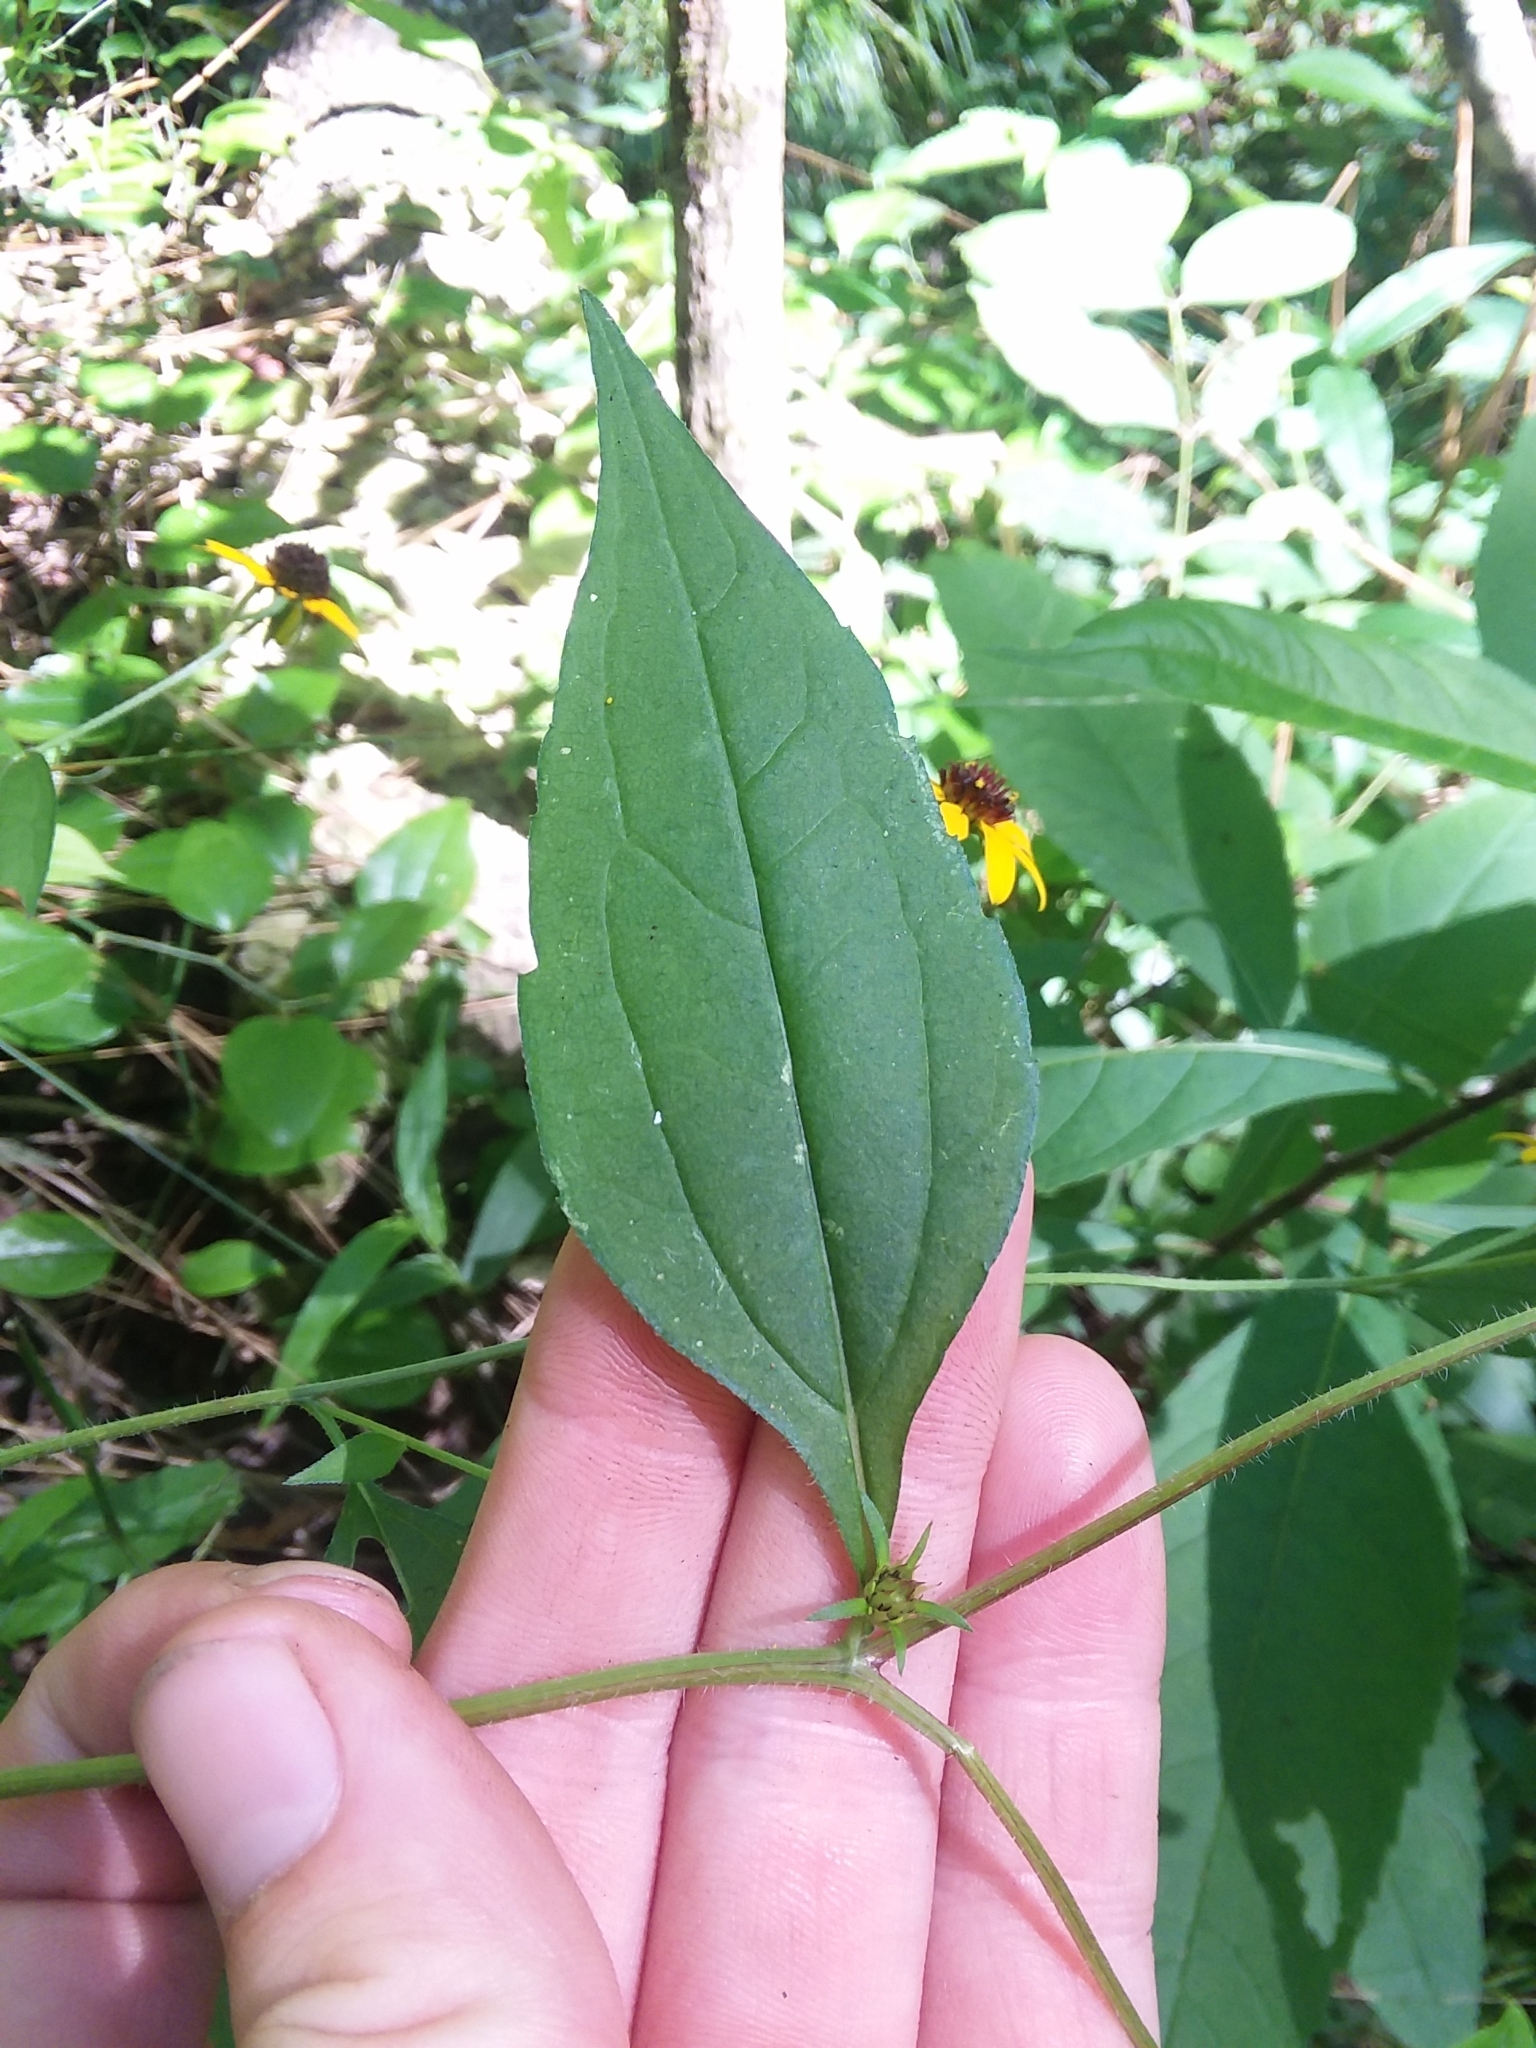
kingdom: Plantae
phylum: Tracheophyta
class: Magnoliopsida
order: Asterales
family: Asteraceae
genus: Rudbeckia
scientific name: Rudbeckia triloba
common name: Thin-leaved coneflower
